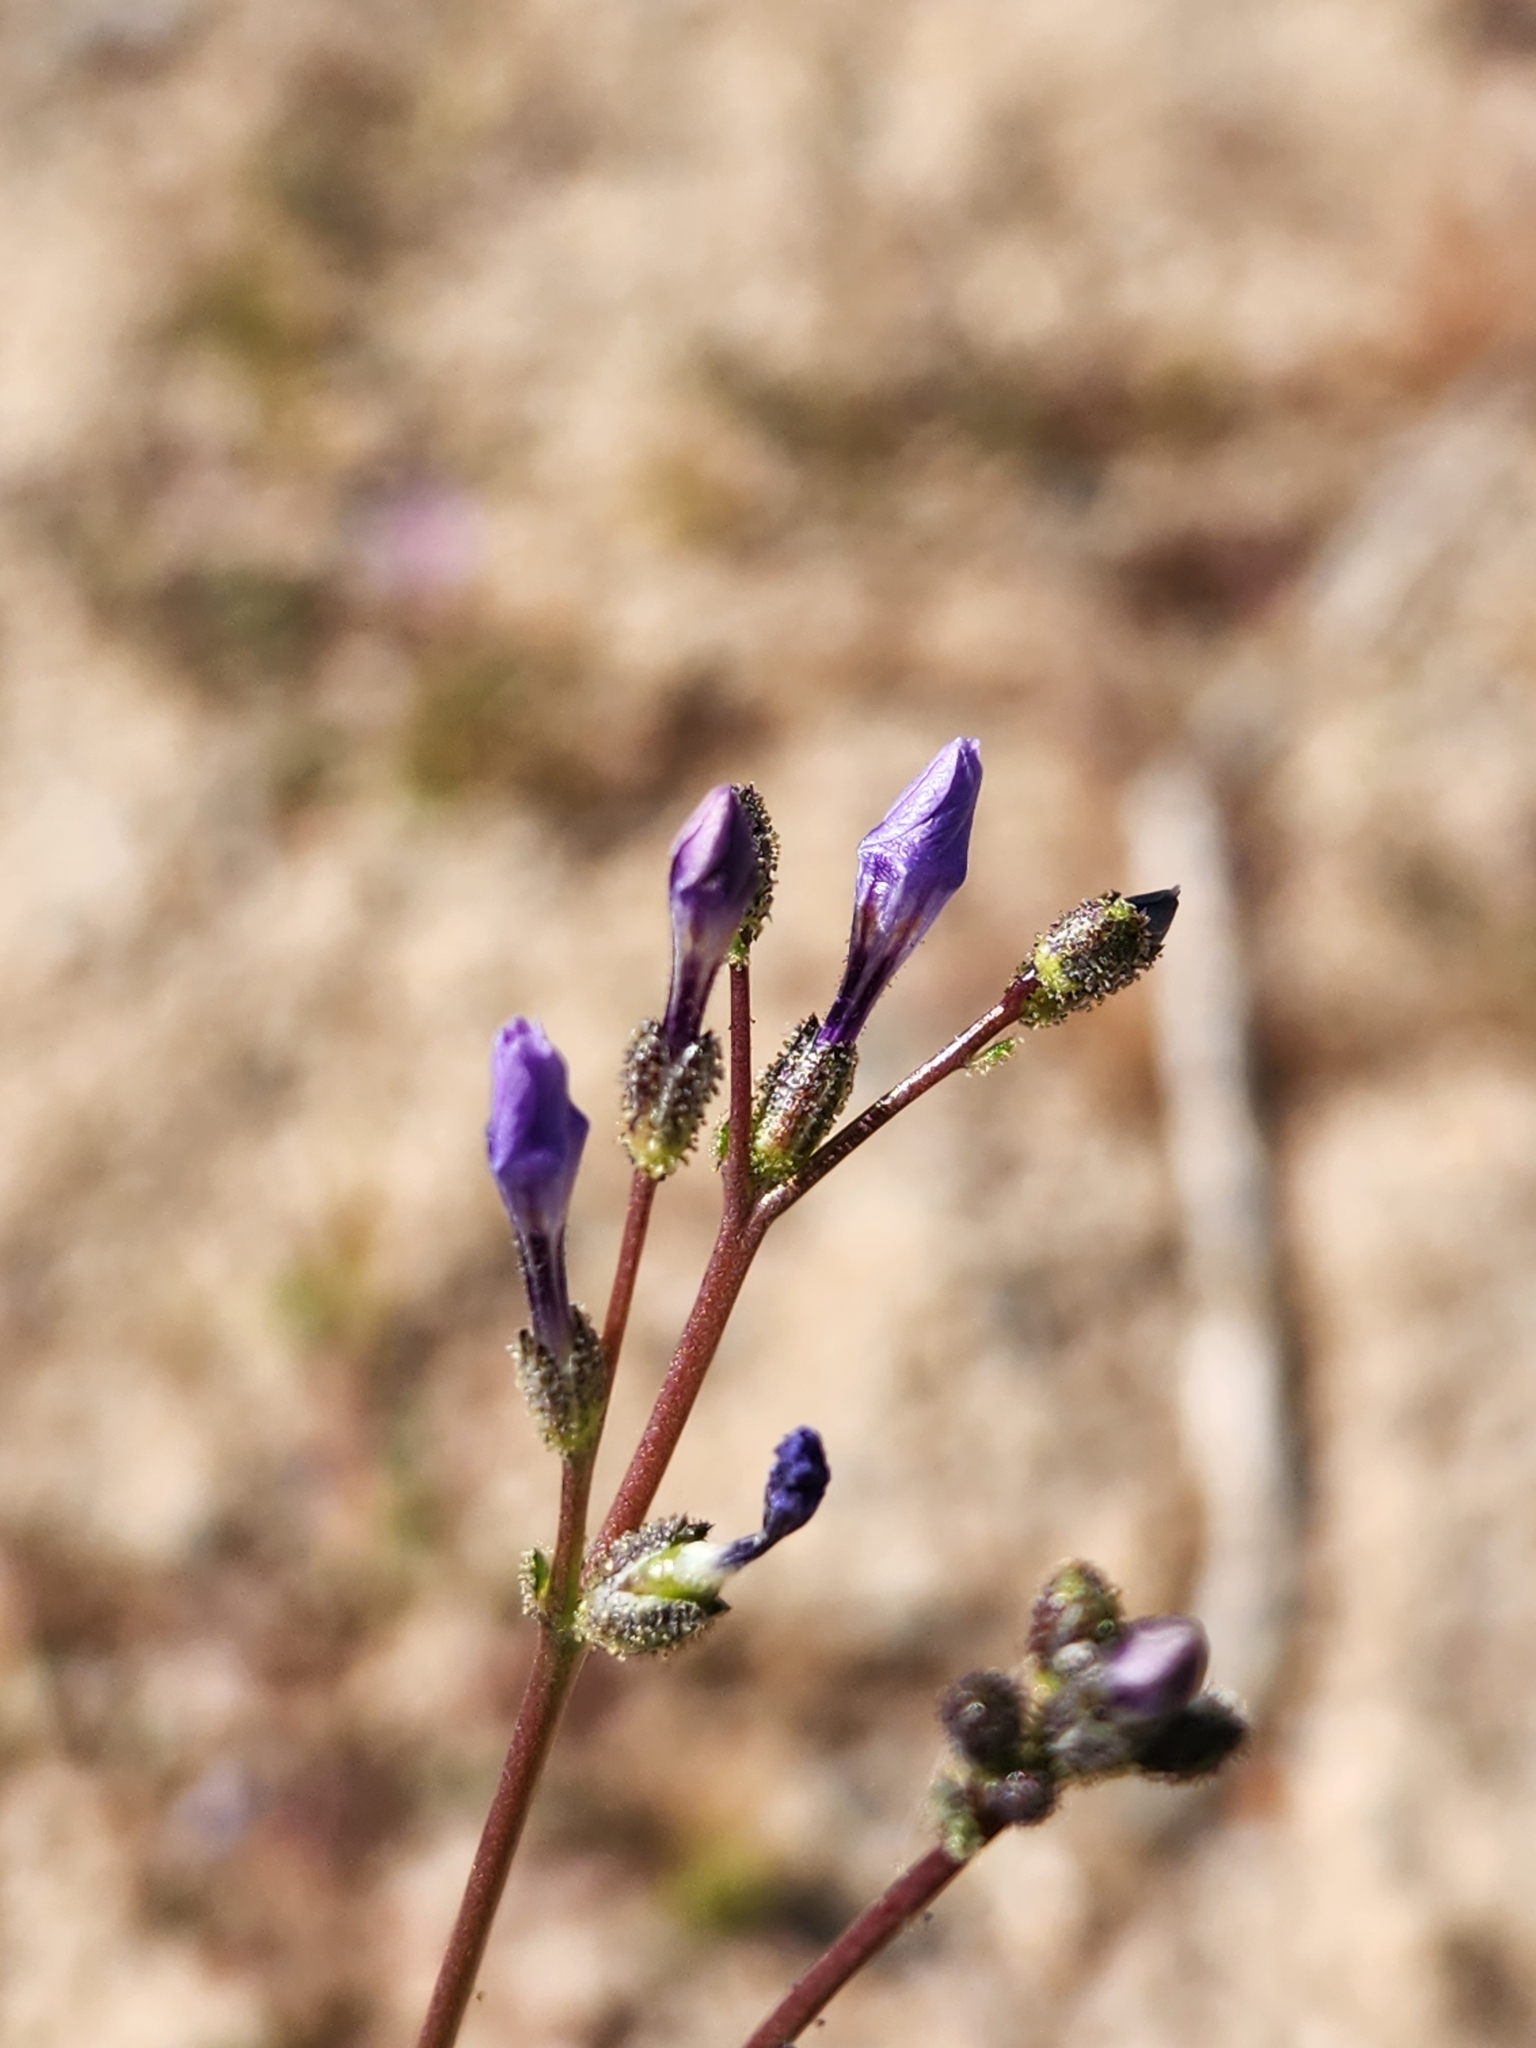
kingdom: Plantae
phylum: Tracheophyta
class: Magnoliopsida
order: Ericales
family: Polemoniaceae
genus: Gilia
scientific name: Gilia brecciarum
